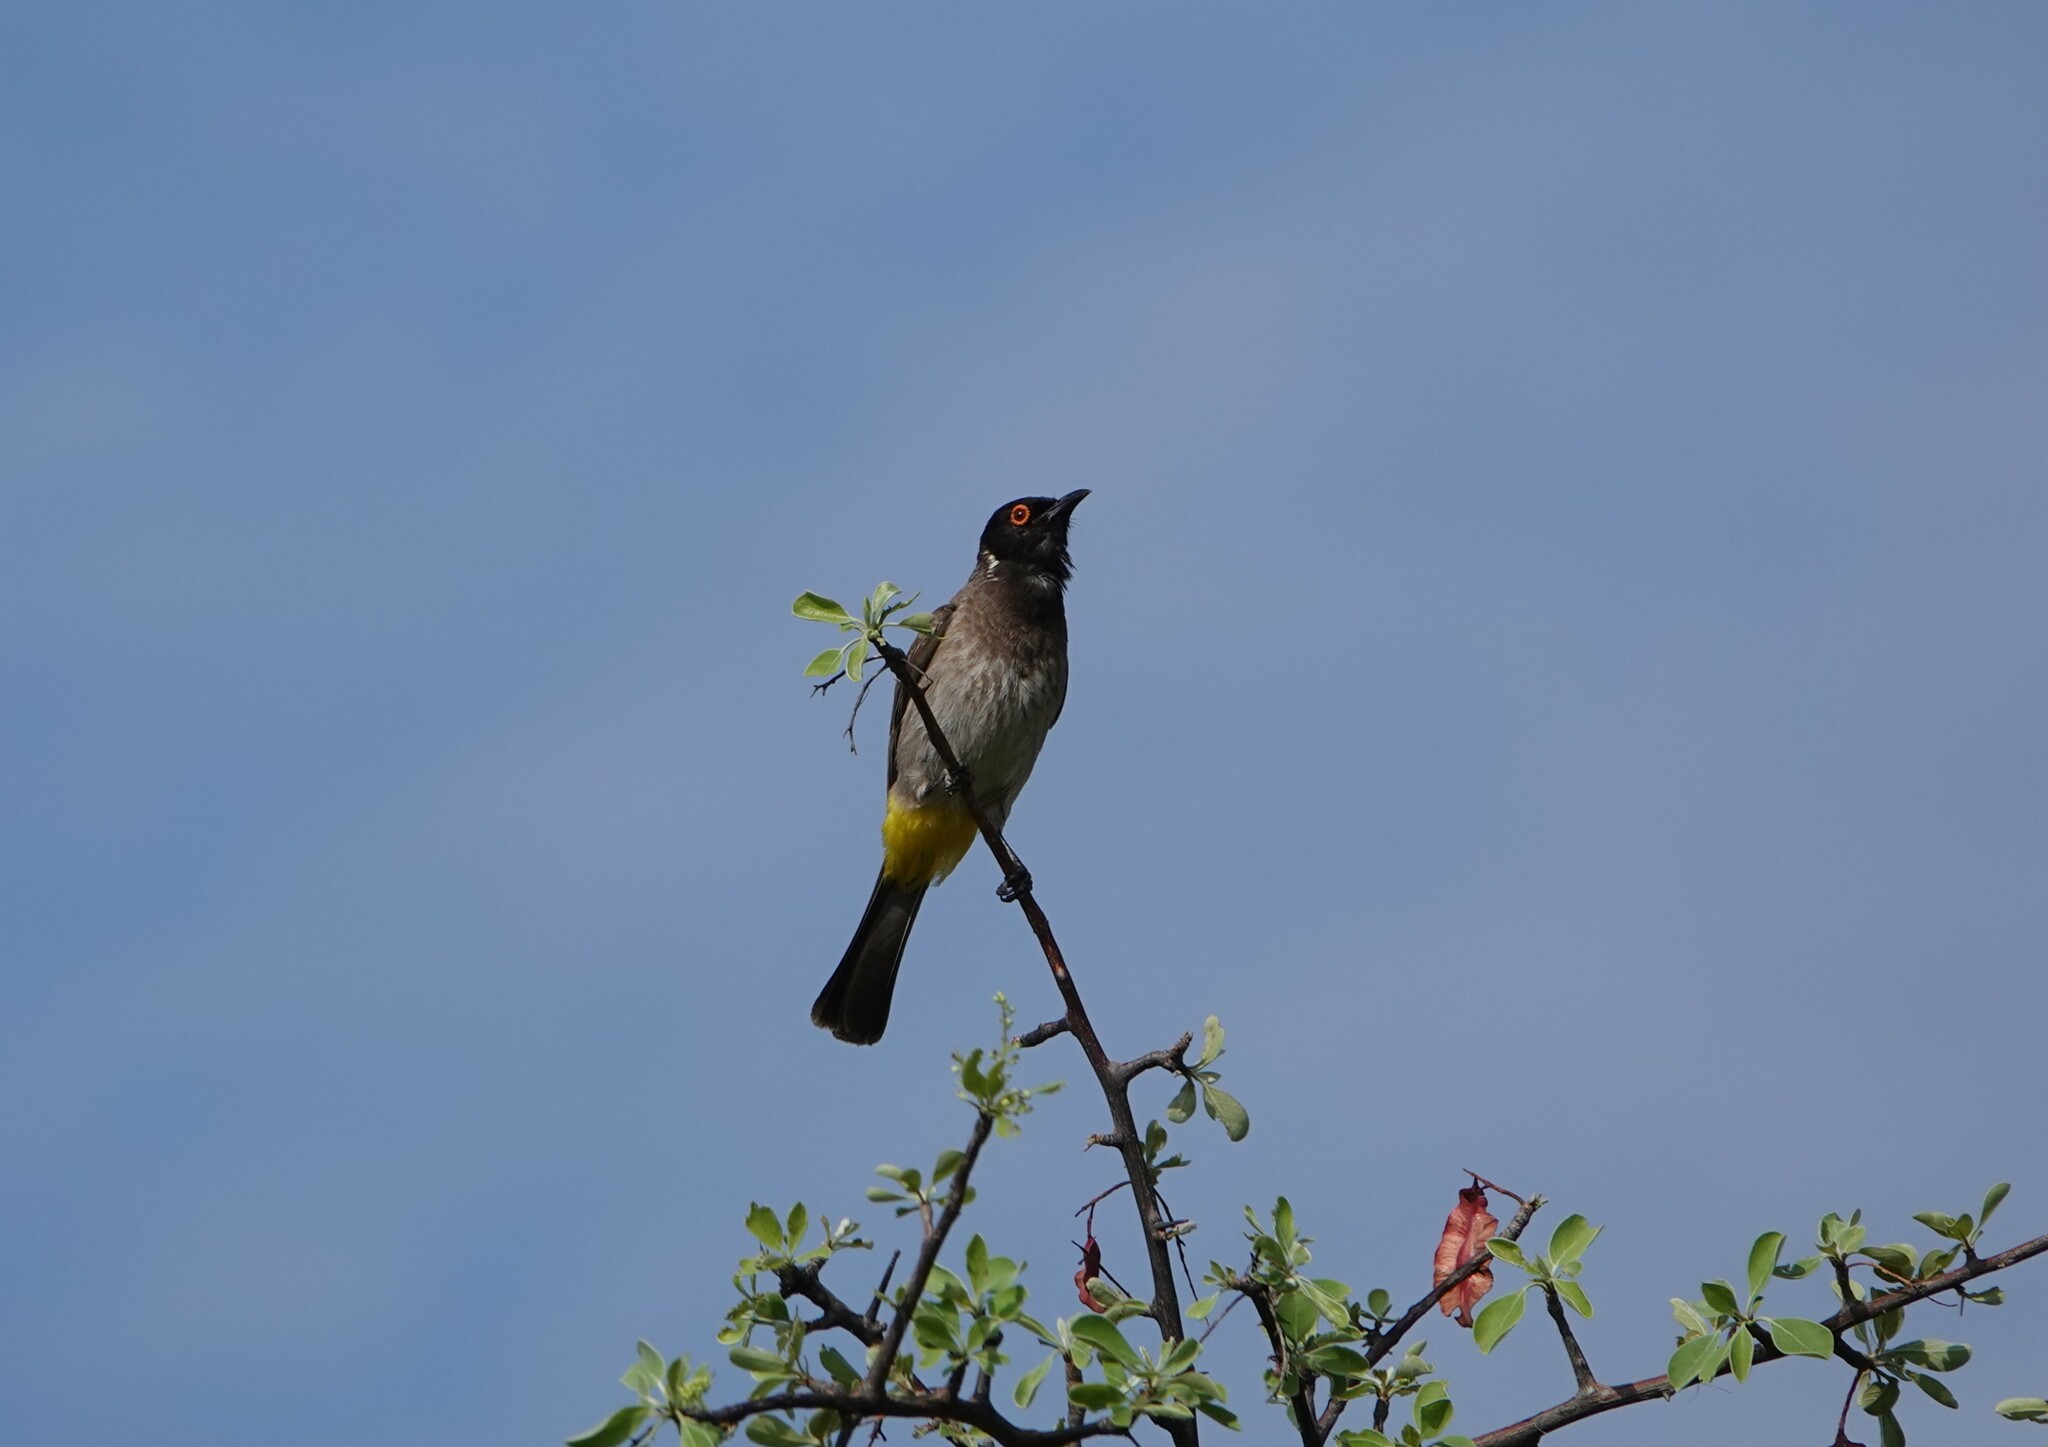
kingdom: Animalia
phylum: Chordata
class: Aves
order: Passeriformes
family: Pycnonotidae
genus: Pycnonotus
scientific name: Pycnonotus nigricans
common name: African red-eyed bulbul
